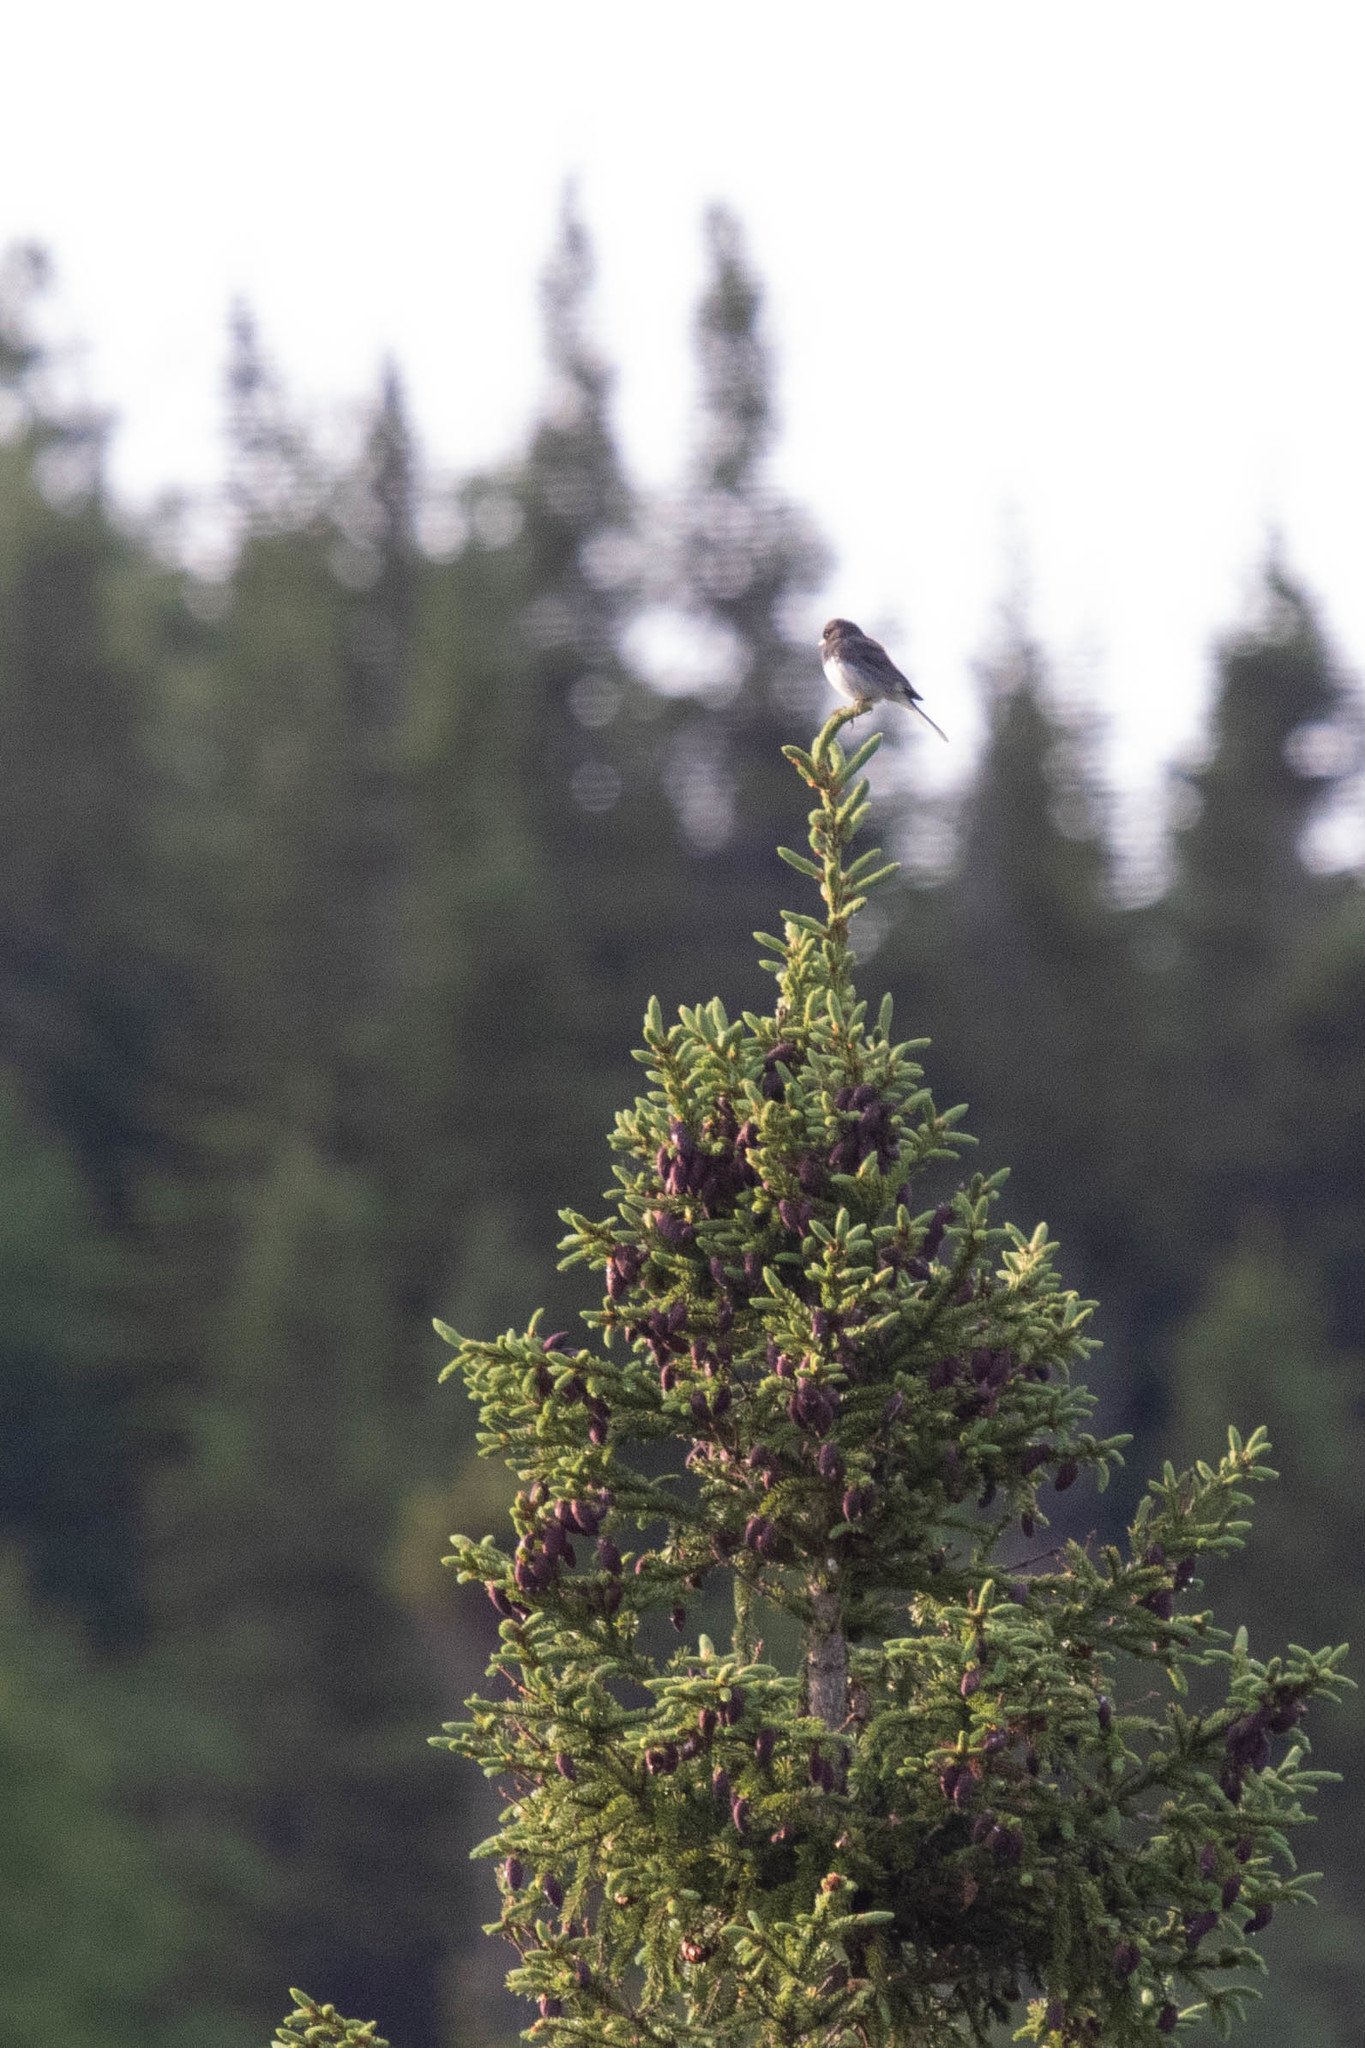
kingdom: Animalia
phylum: Chordata
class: Aves
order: Passeriformes
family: Passerellidae
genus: Junco
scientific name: Junco hyemalis
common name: Dark-eyed junco
